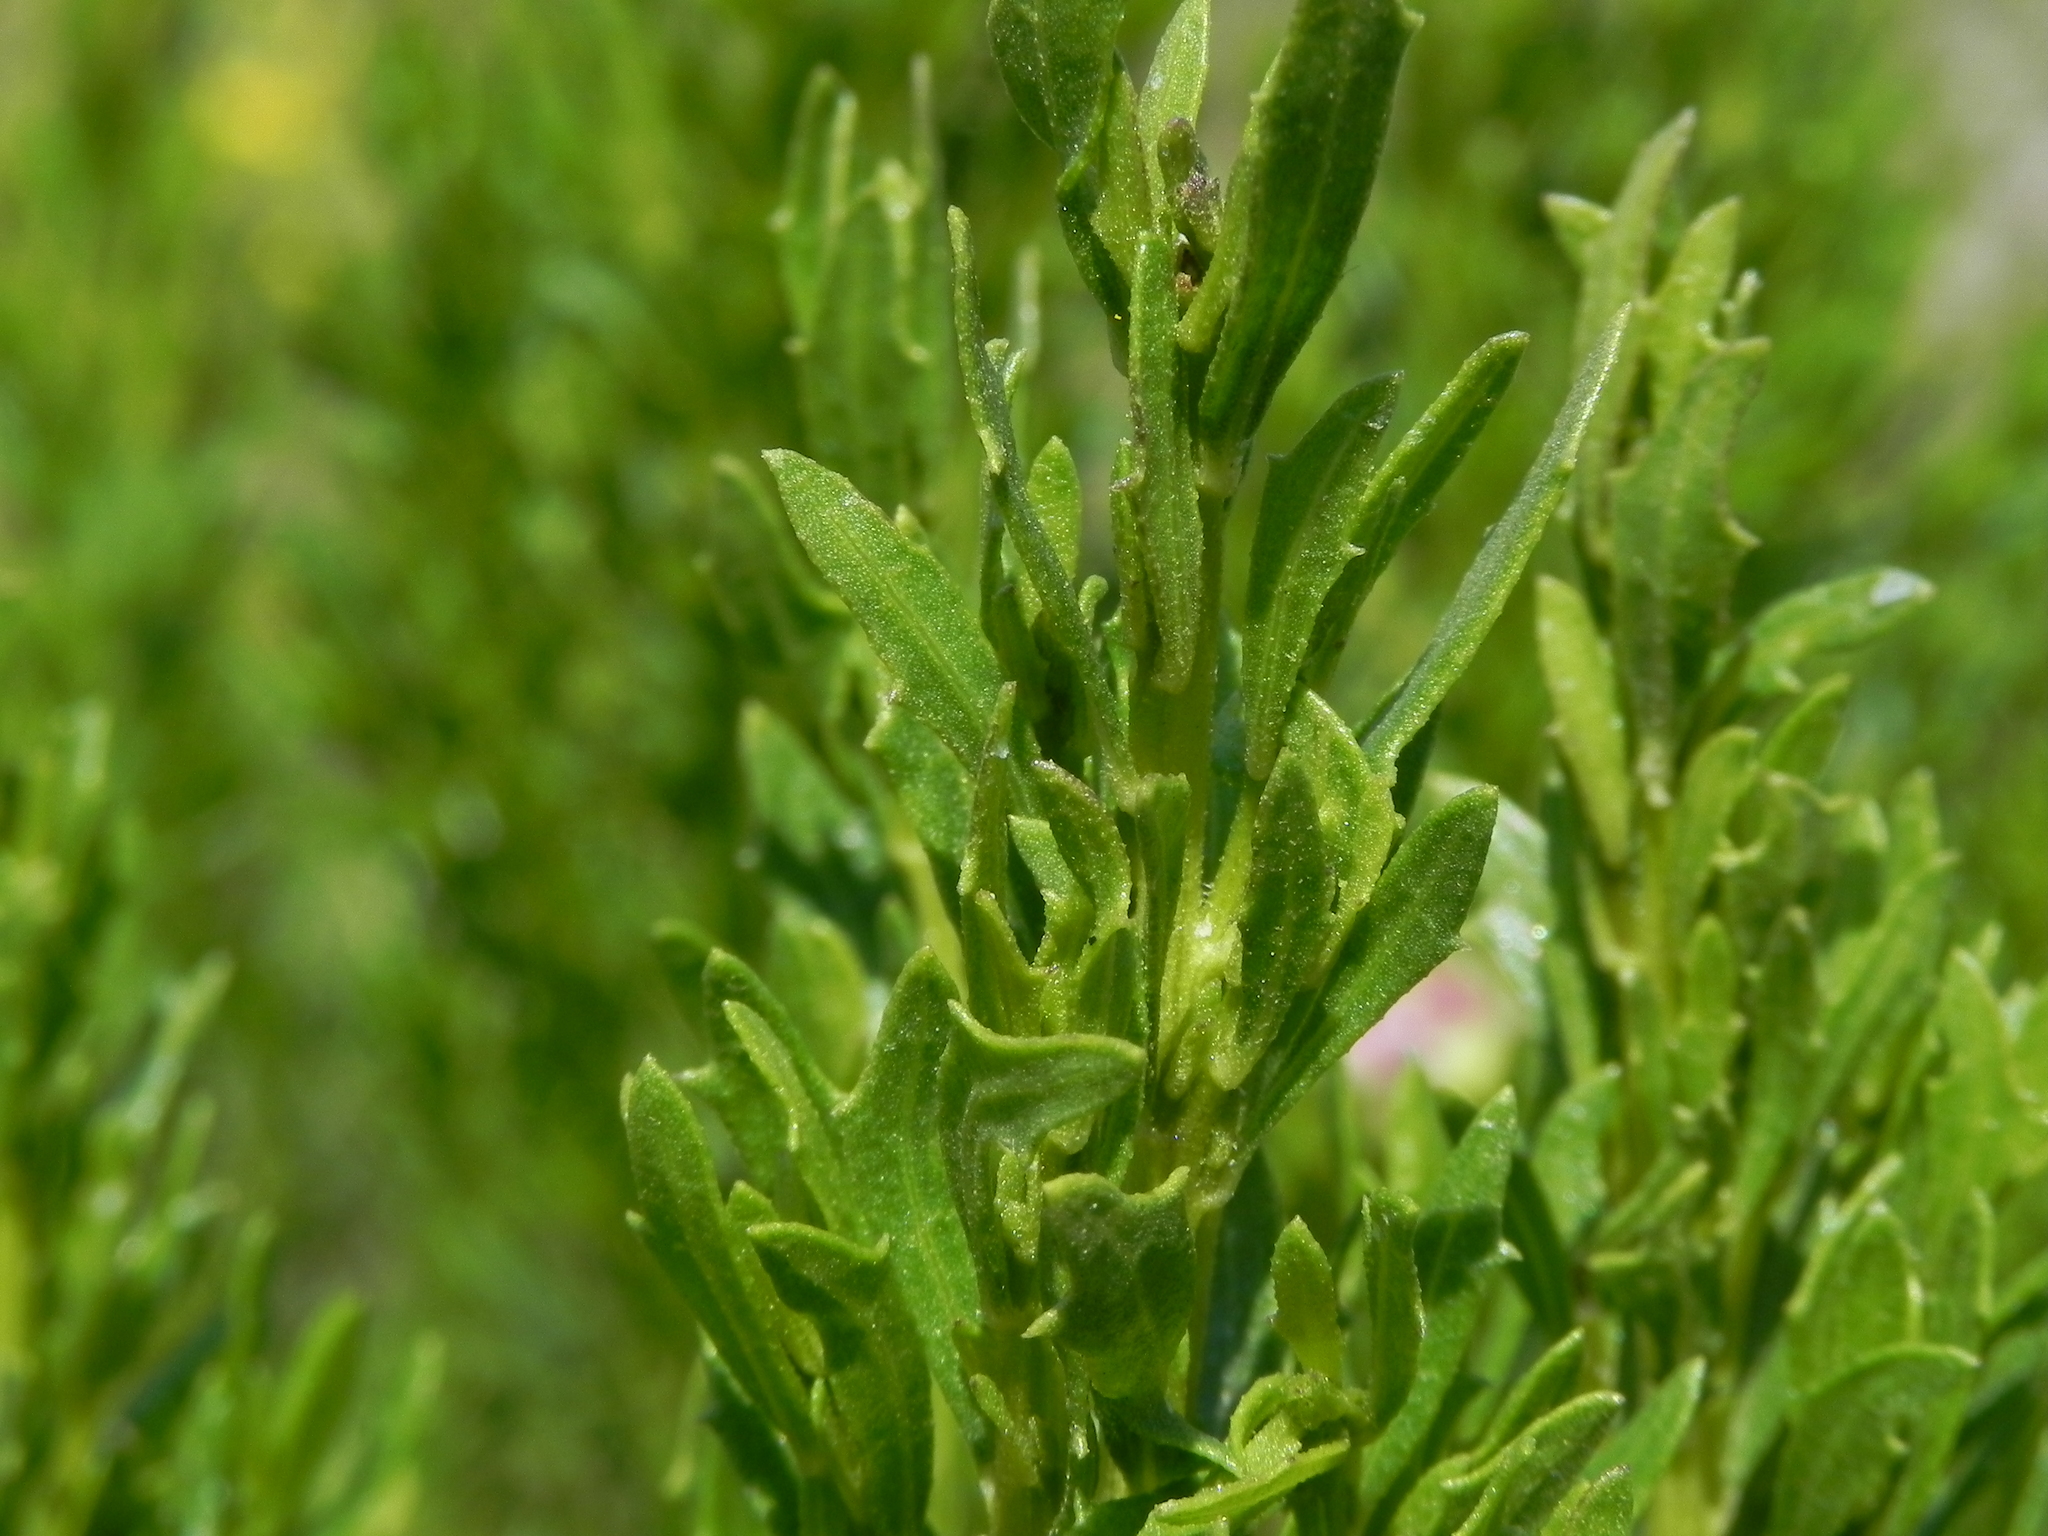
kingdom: Plantae
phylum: Tracheophyta
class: Magnoliopsida
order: Asterales
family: Asteraceae
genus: Baccharis
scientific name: Baccharis pilularis
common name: Coyotebrush
